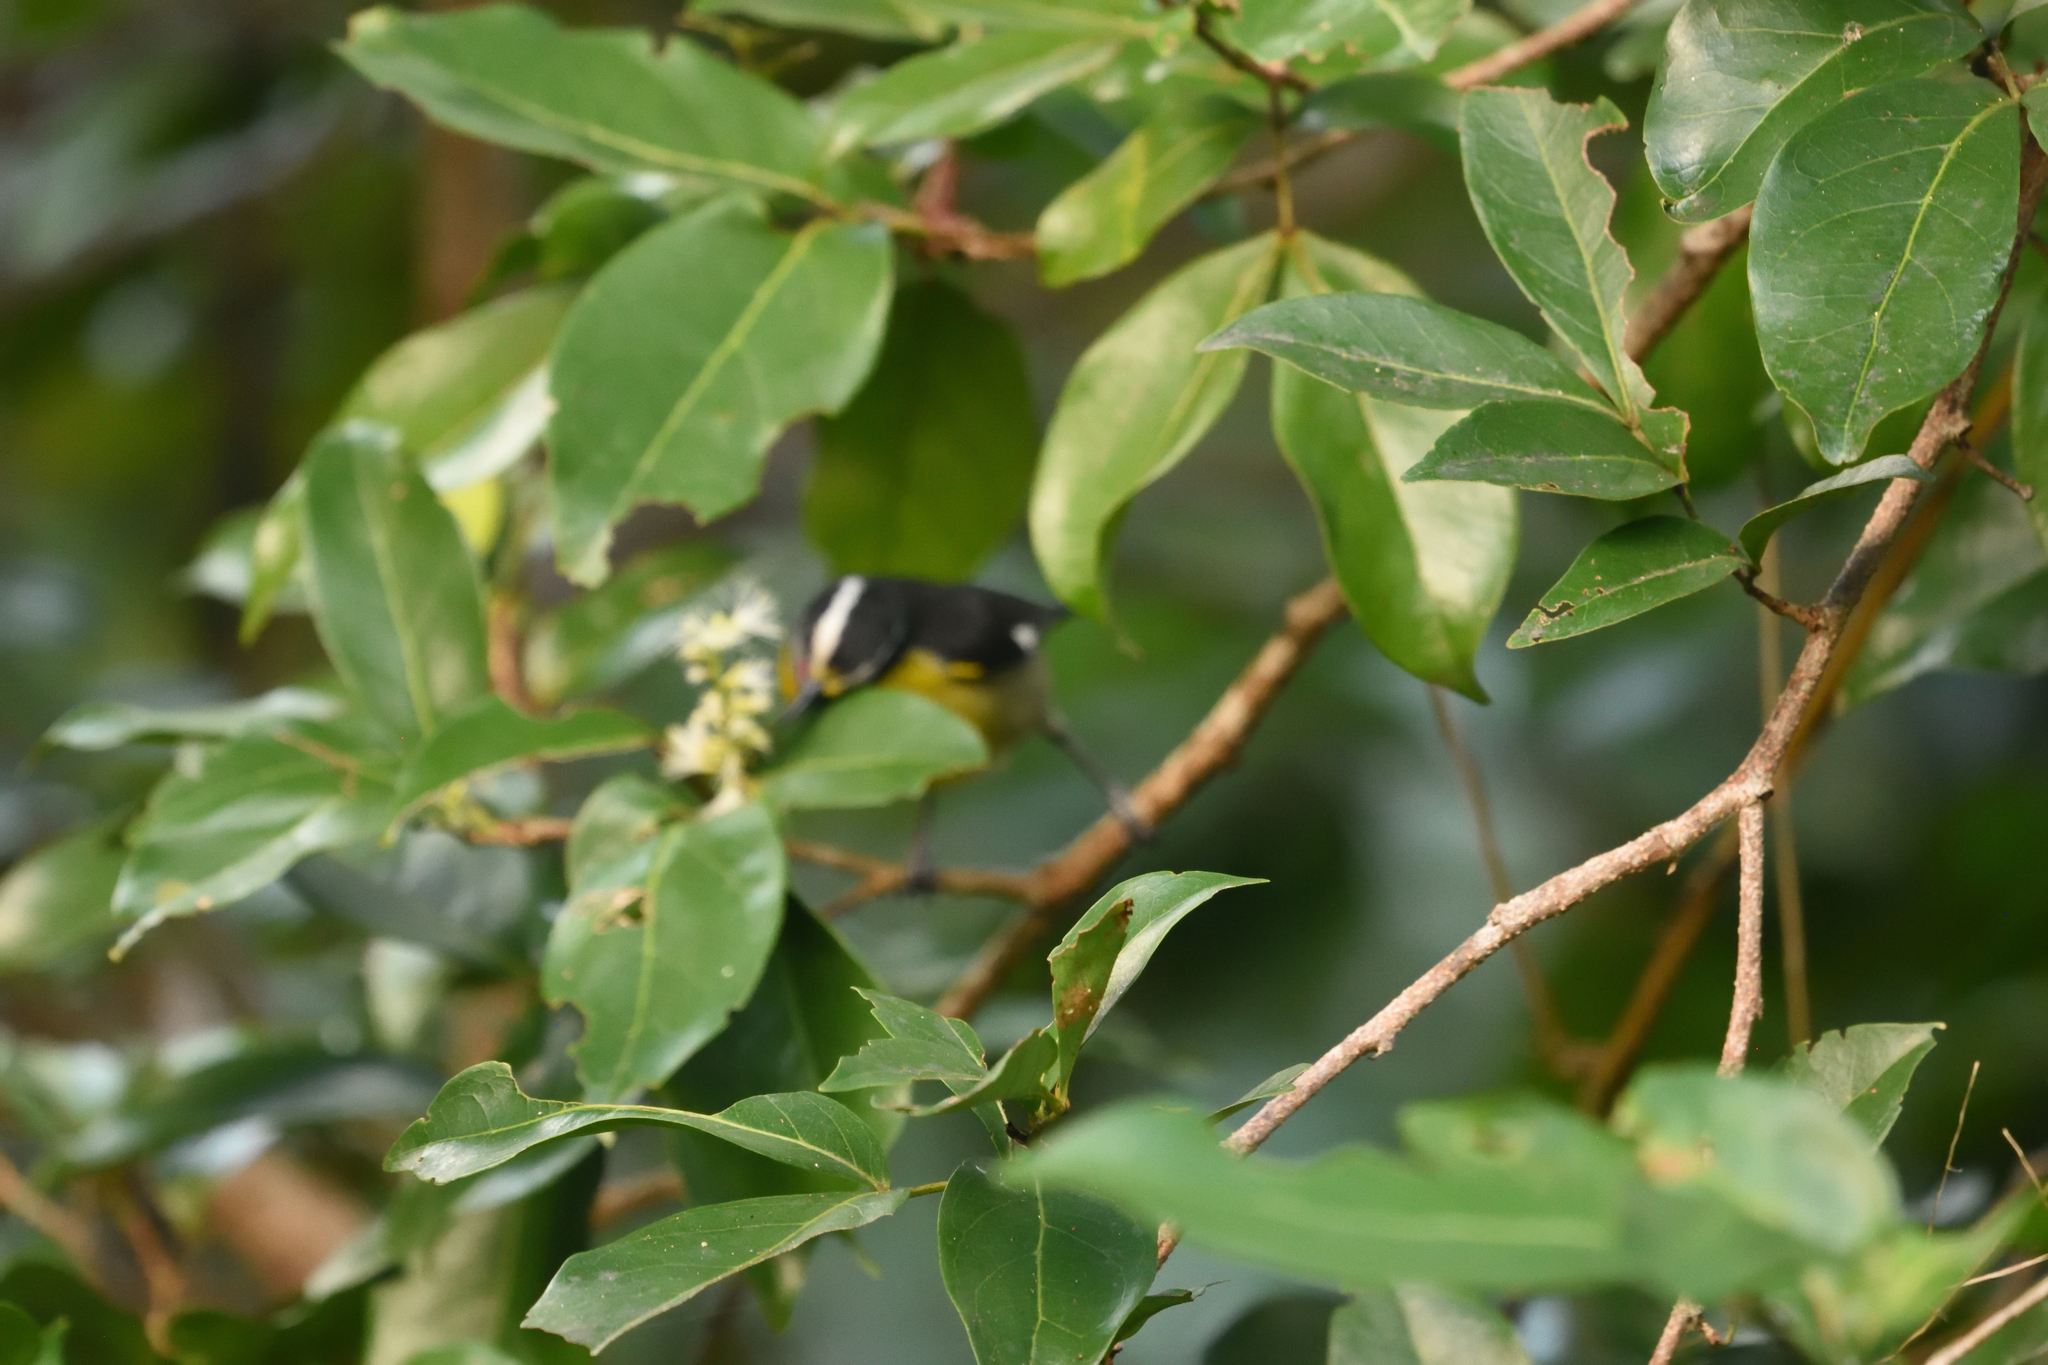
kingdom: Animalia
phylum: Chordata
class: Aves
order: Passeriformes
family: Thraupidae
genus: Coereba
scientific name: Coereba flaveola
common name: Bananaquit
